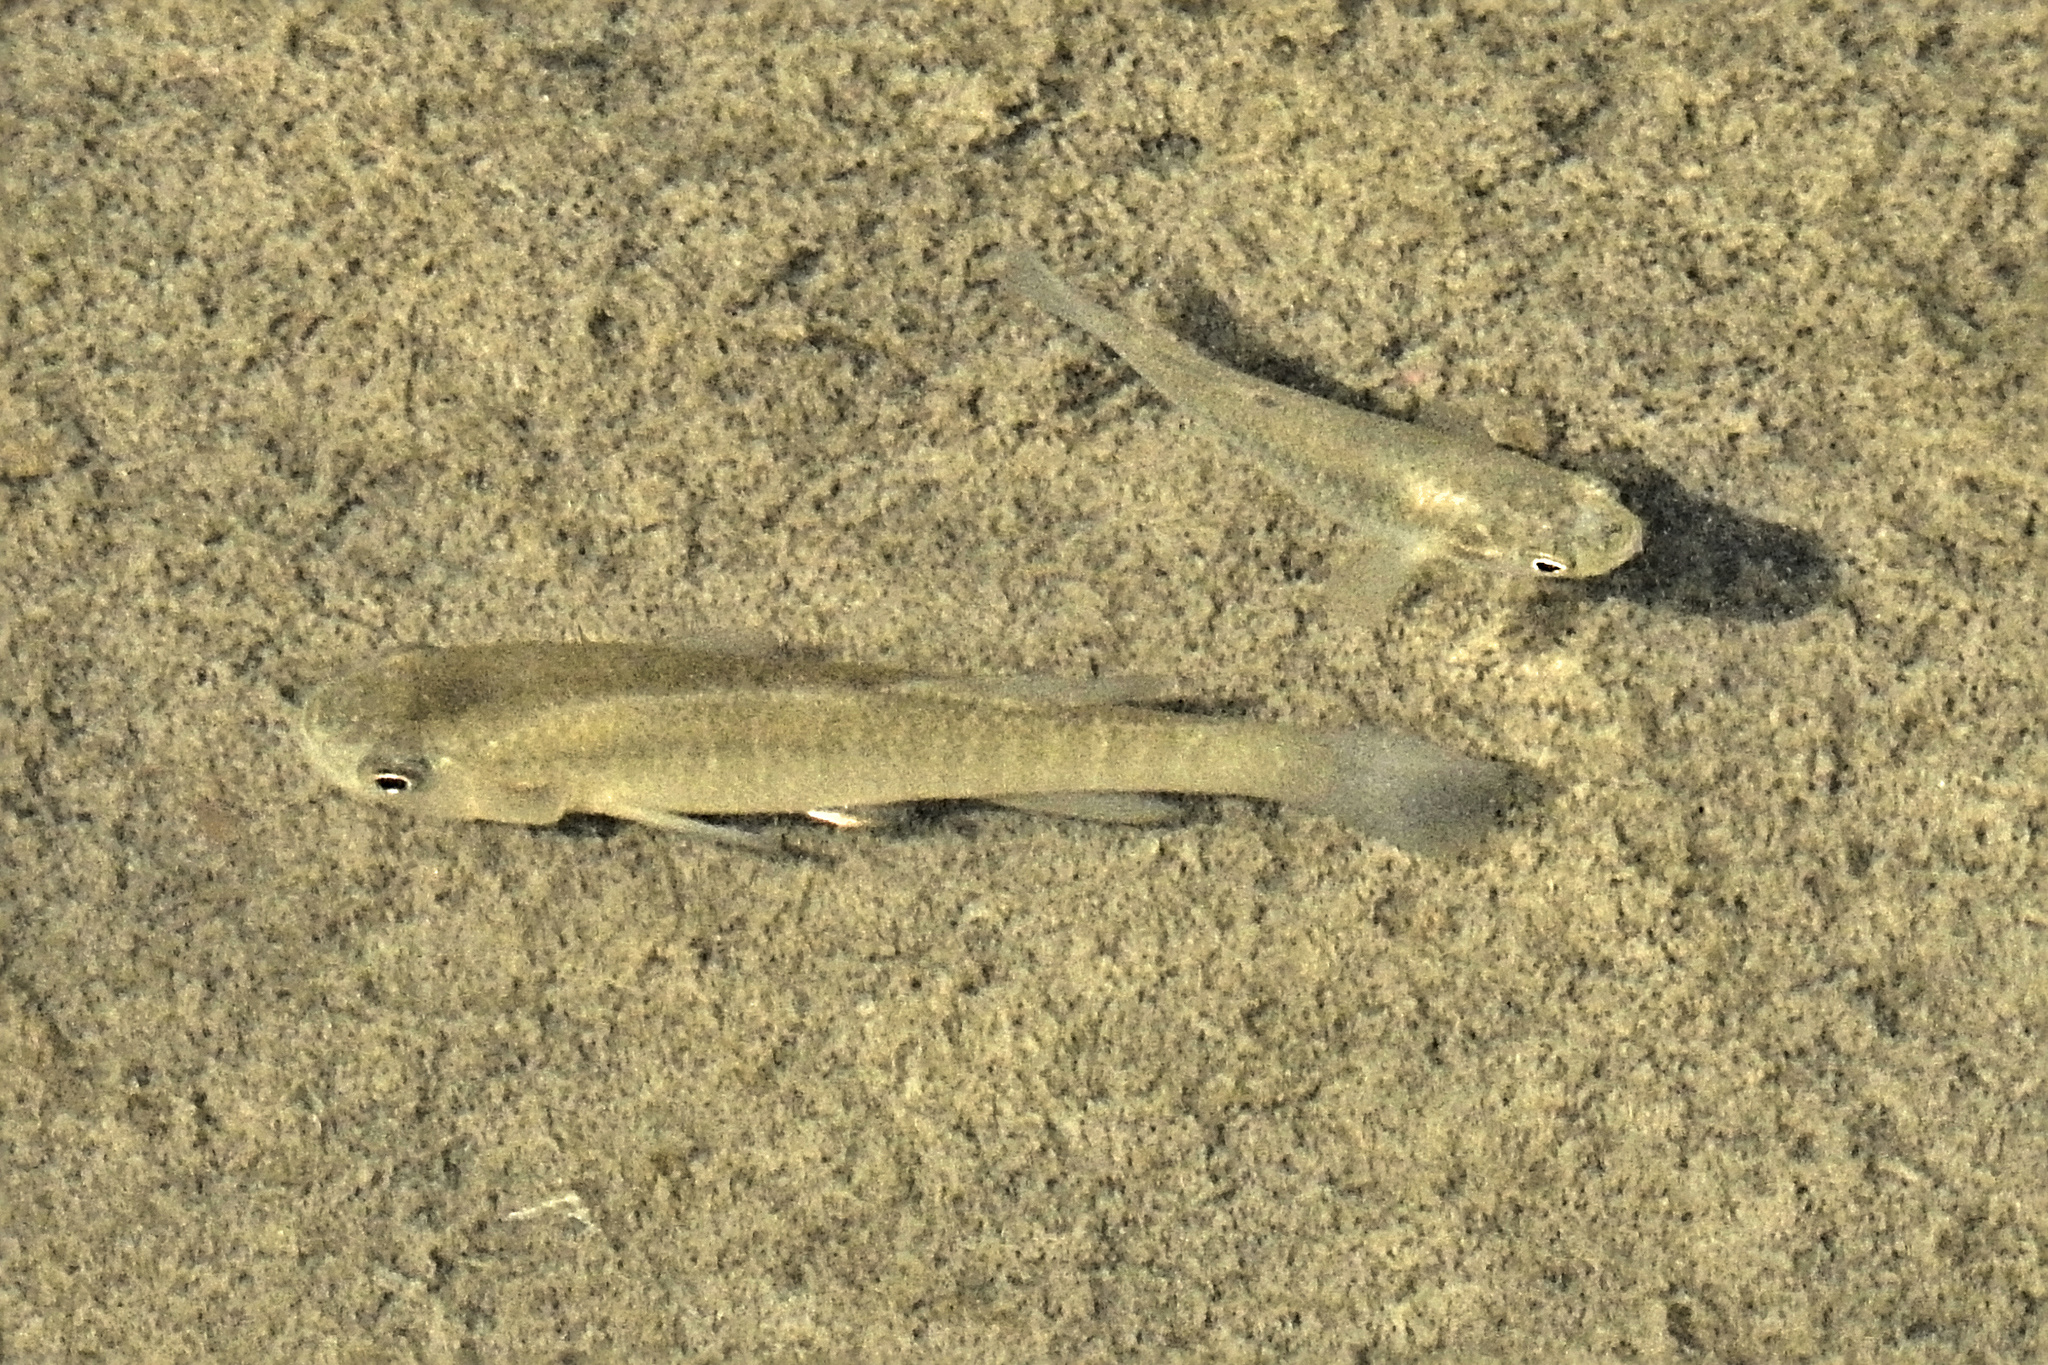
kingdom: Animalia
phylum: Chordata
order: Cyprinodontiformes
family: Fundulidae
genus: Fundulus
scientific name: Fundulus heteroclitus
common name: Mummichog
